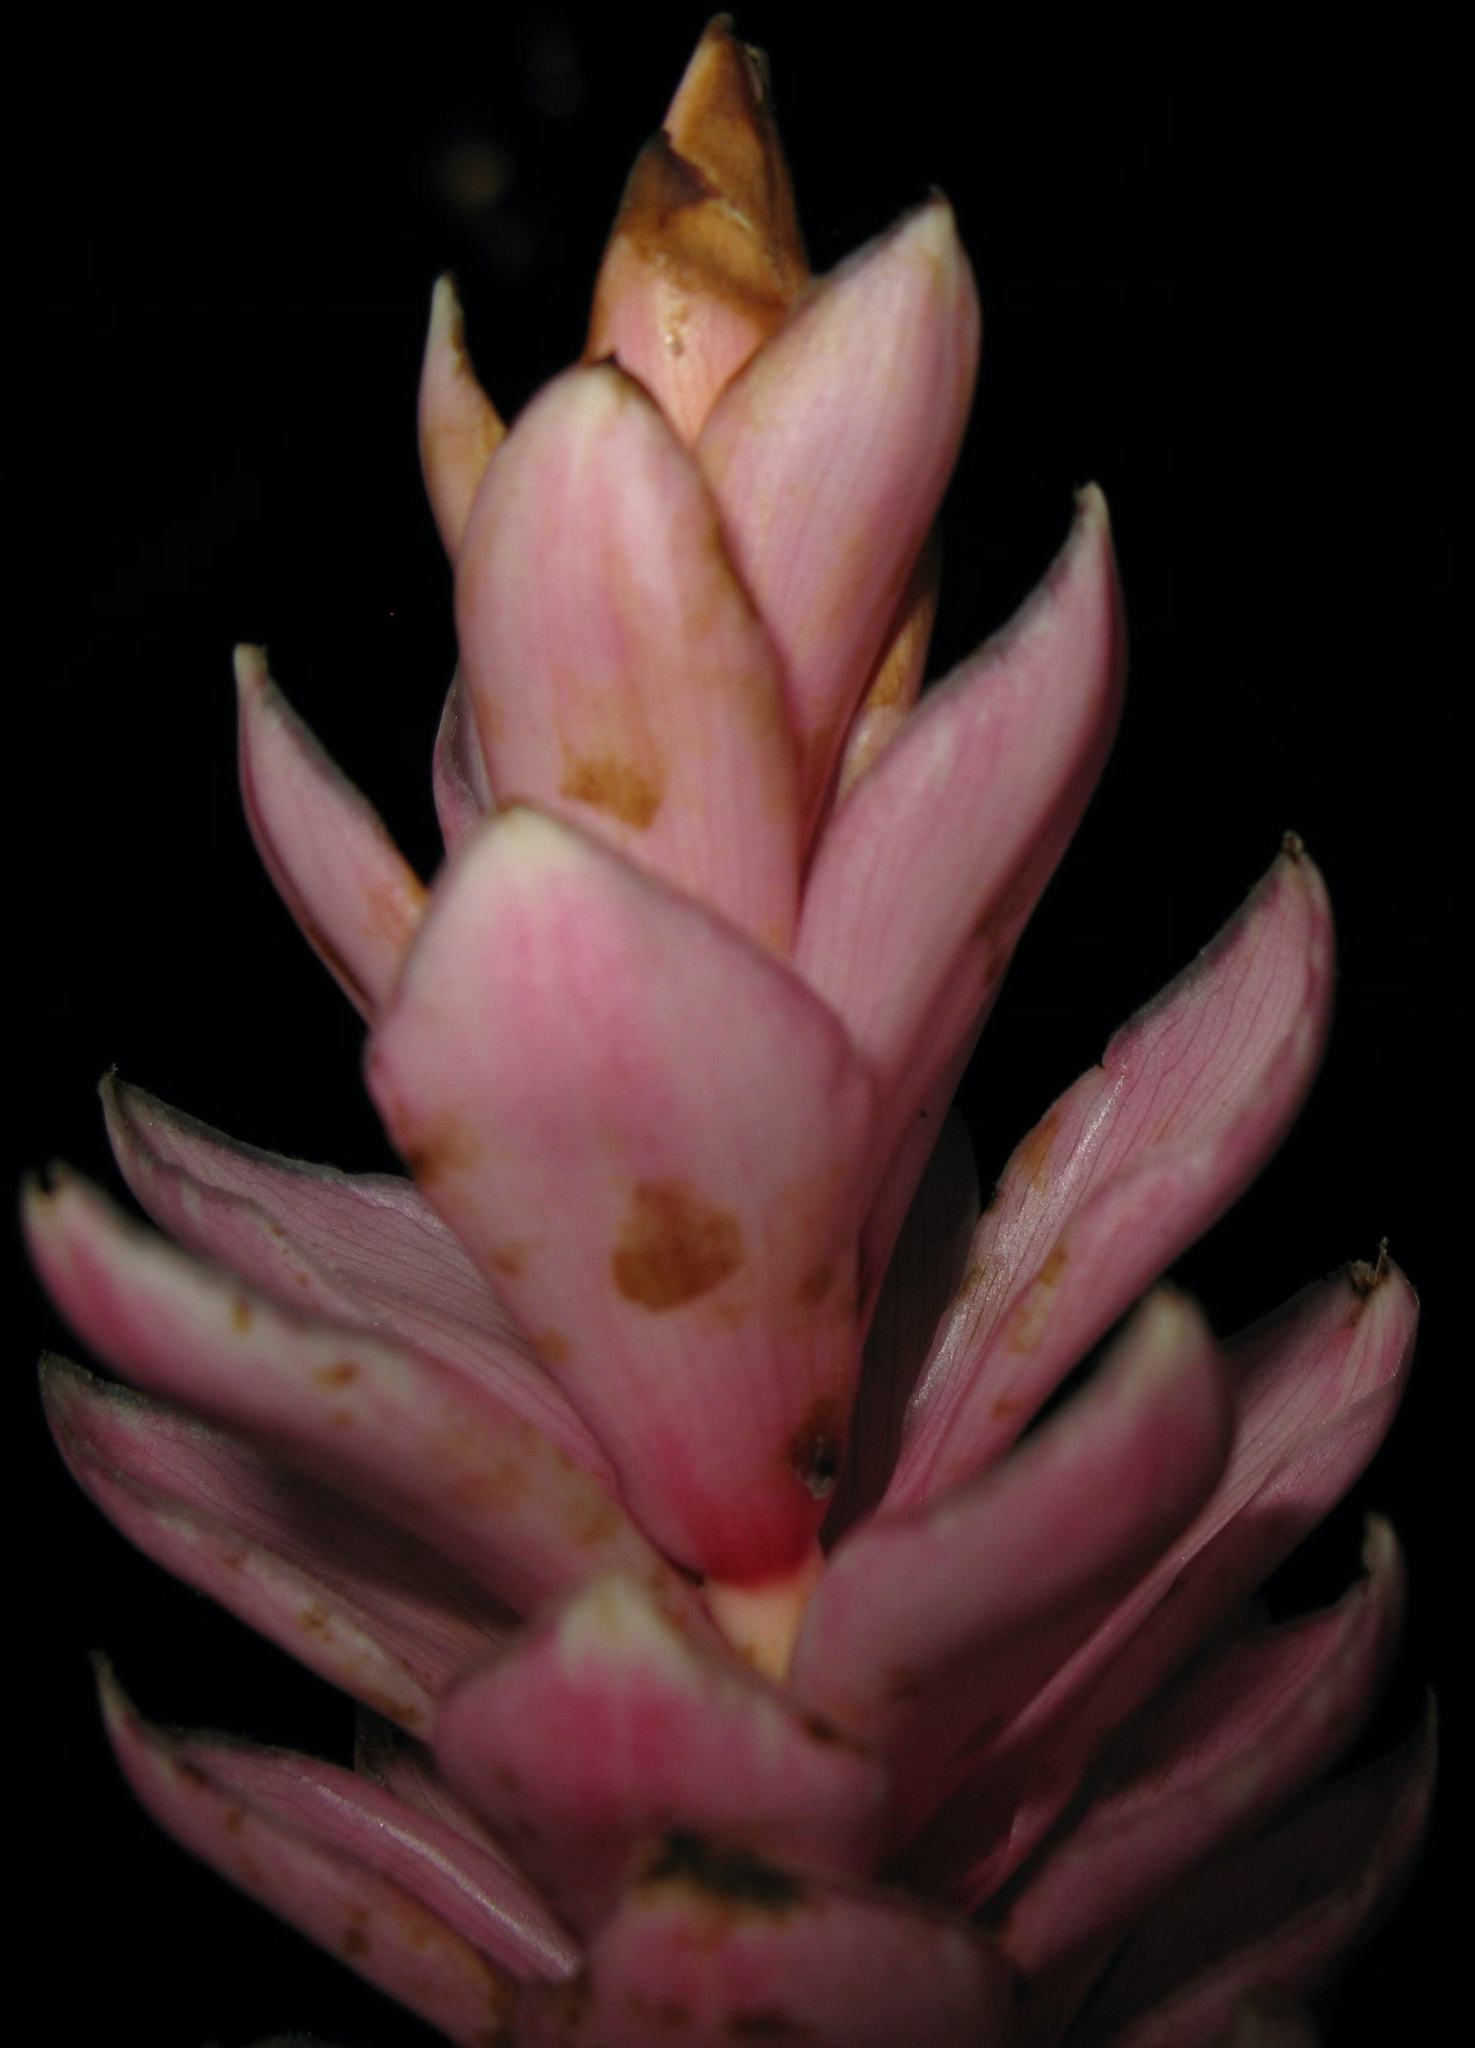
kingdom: Plantae
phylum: Tracheophyta
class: Liliopsida
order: Zingiberales
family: Zingiberaceae
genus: Alpinia
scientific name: Alpinia purpurata
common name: Red ginger
